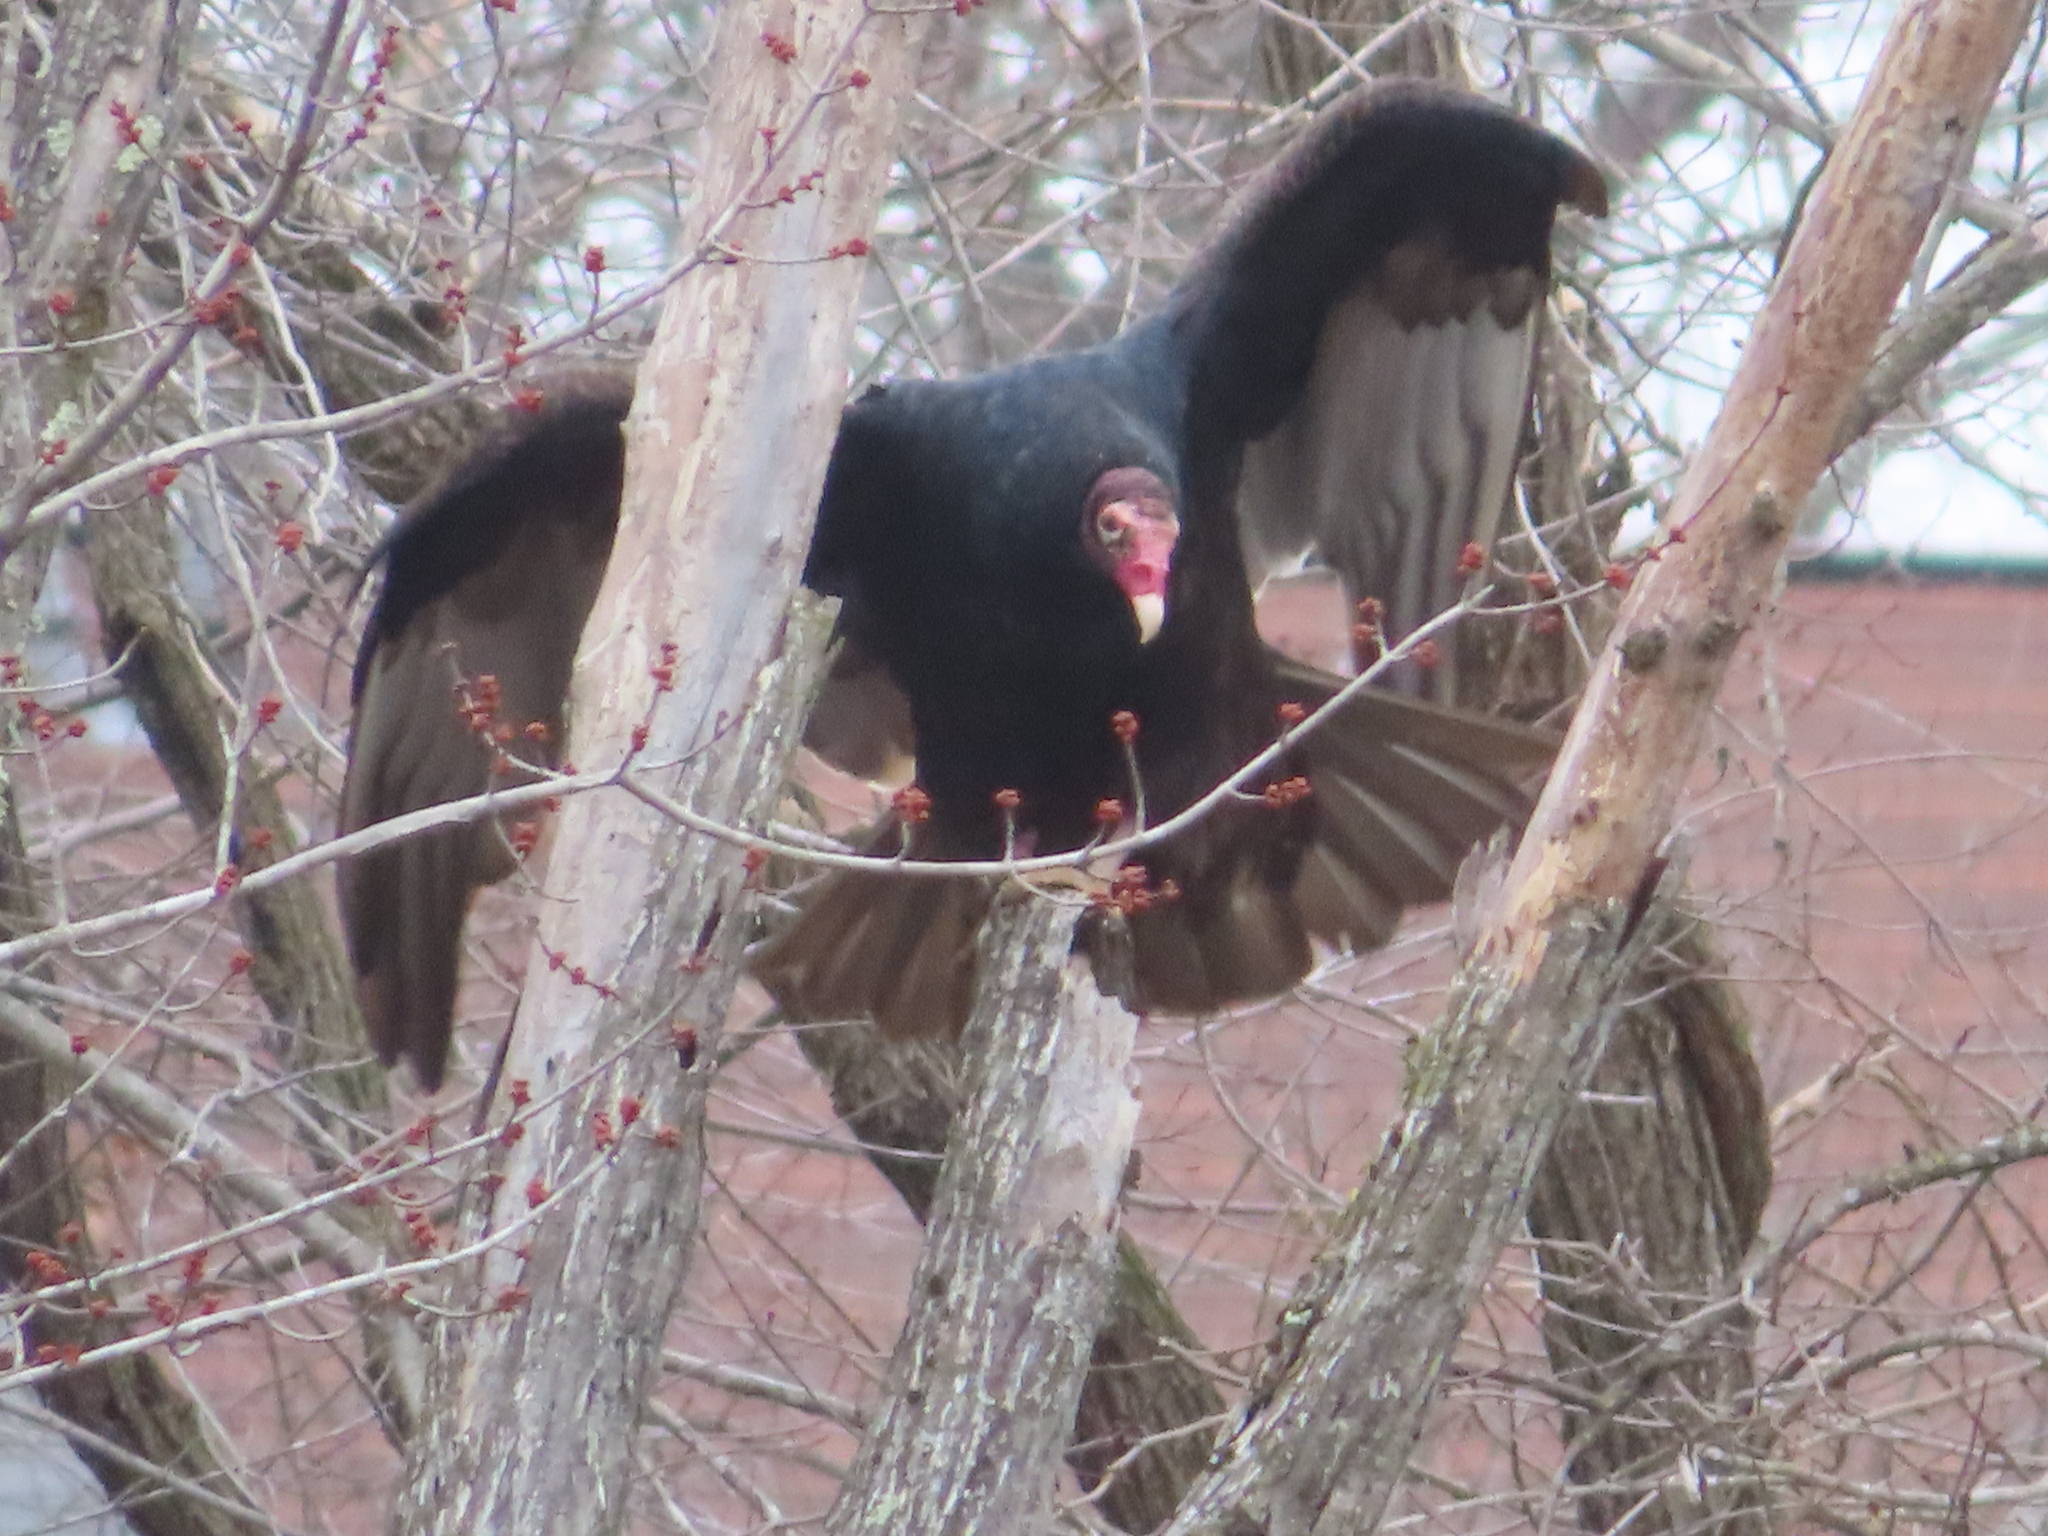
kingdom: Animalia
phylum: Chordata
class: Aves
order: Accipitriformes
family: Cathartidae
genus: Cathartes
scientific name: Cathartes aura
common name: Turkey vulture
